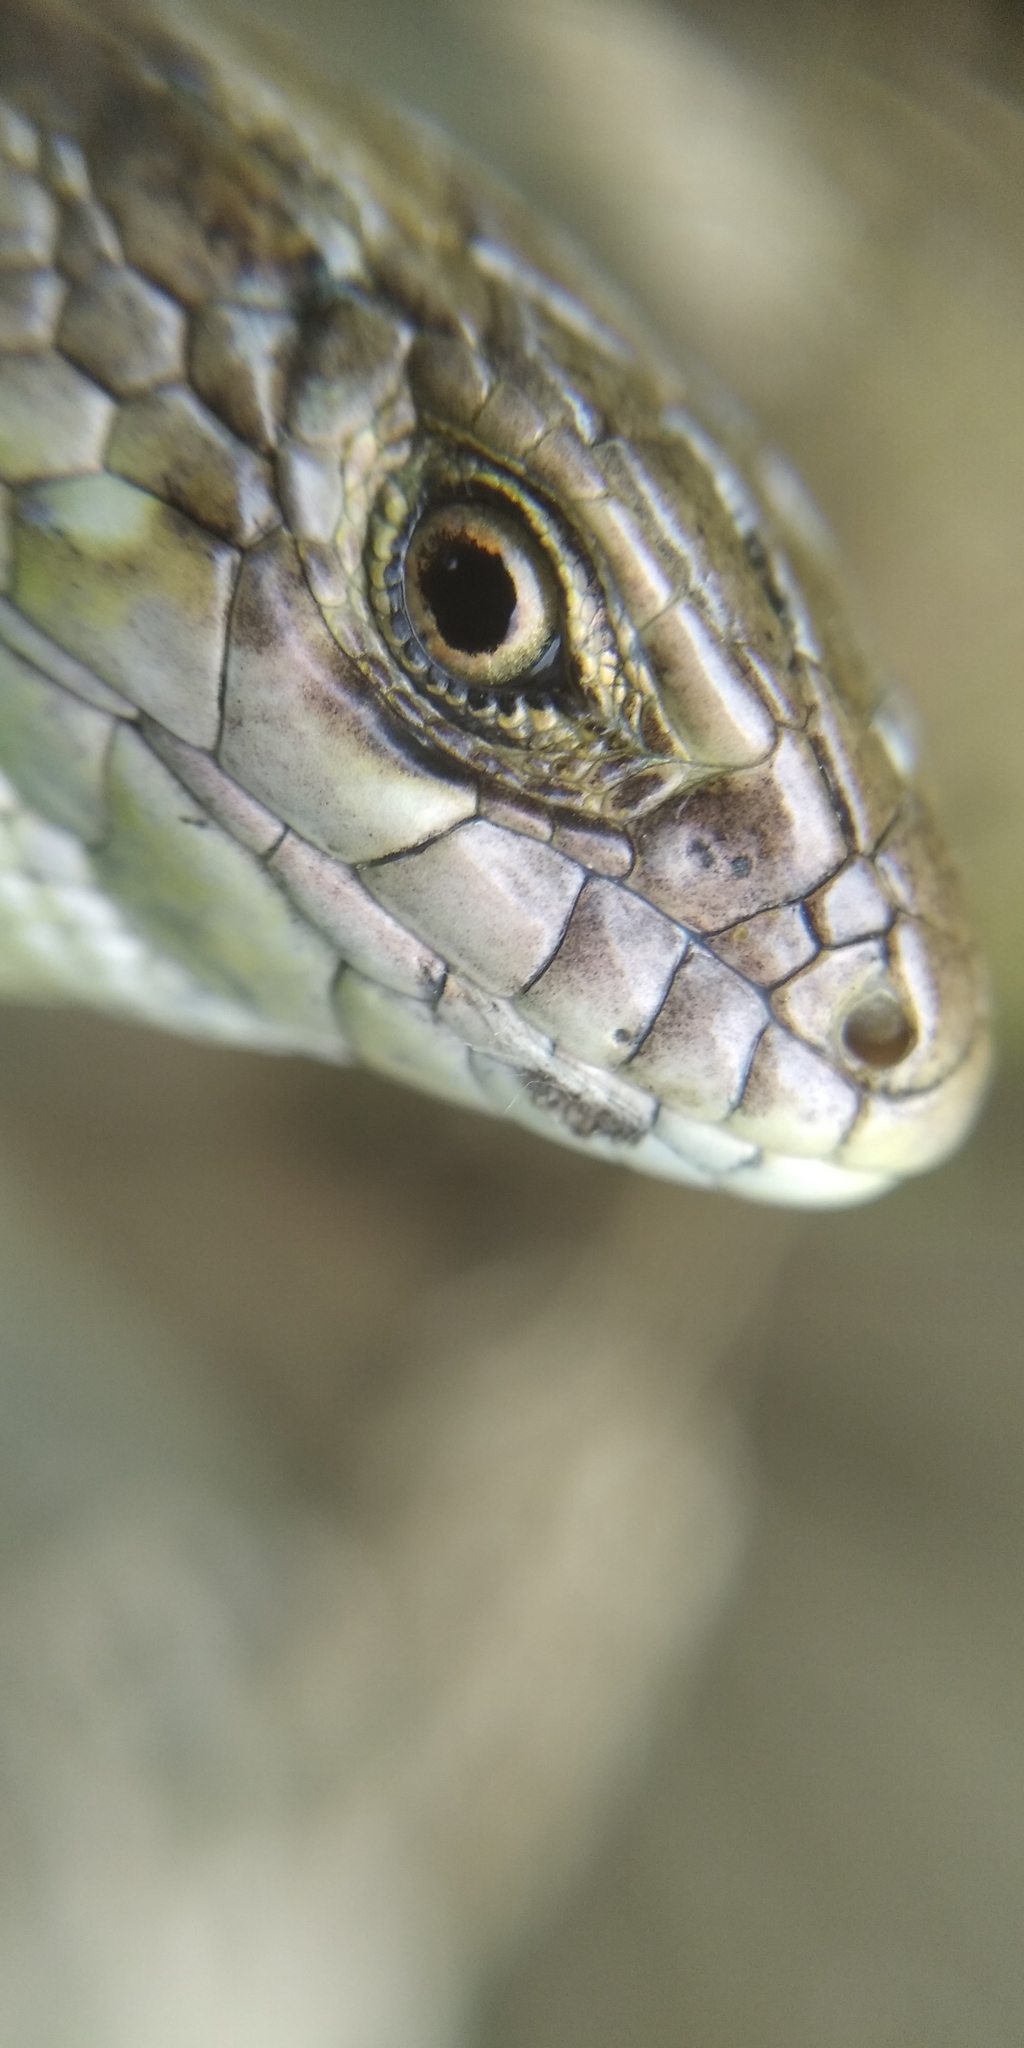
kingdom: Animalia
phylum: Chordata
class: Squamata
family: Lacertidae
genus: Lacerta
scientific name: Lacerta agilis
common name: Sand lizard
